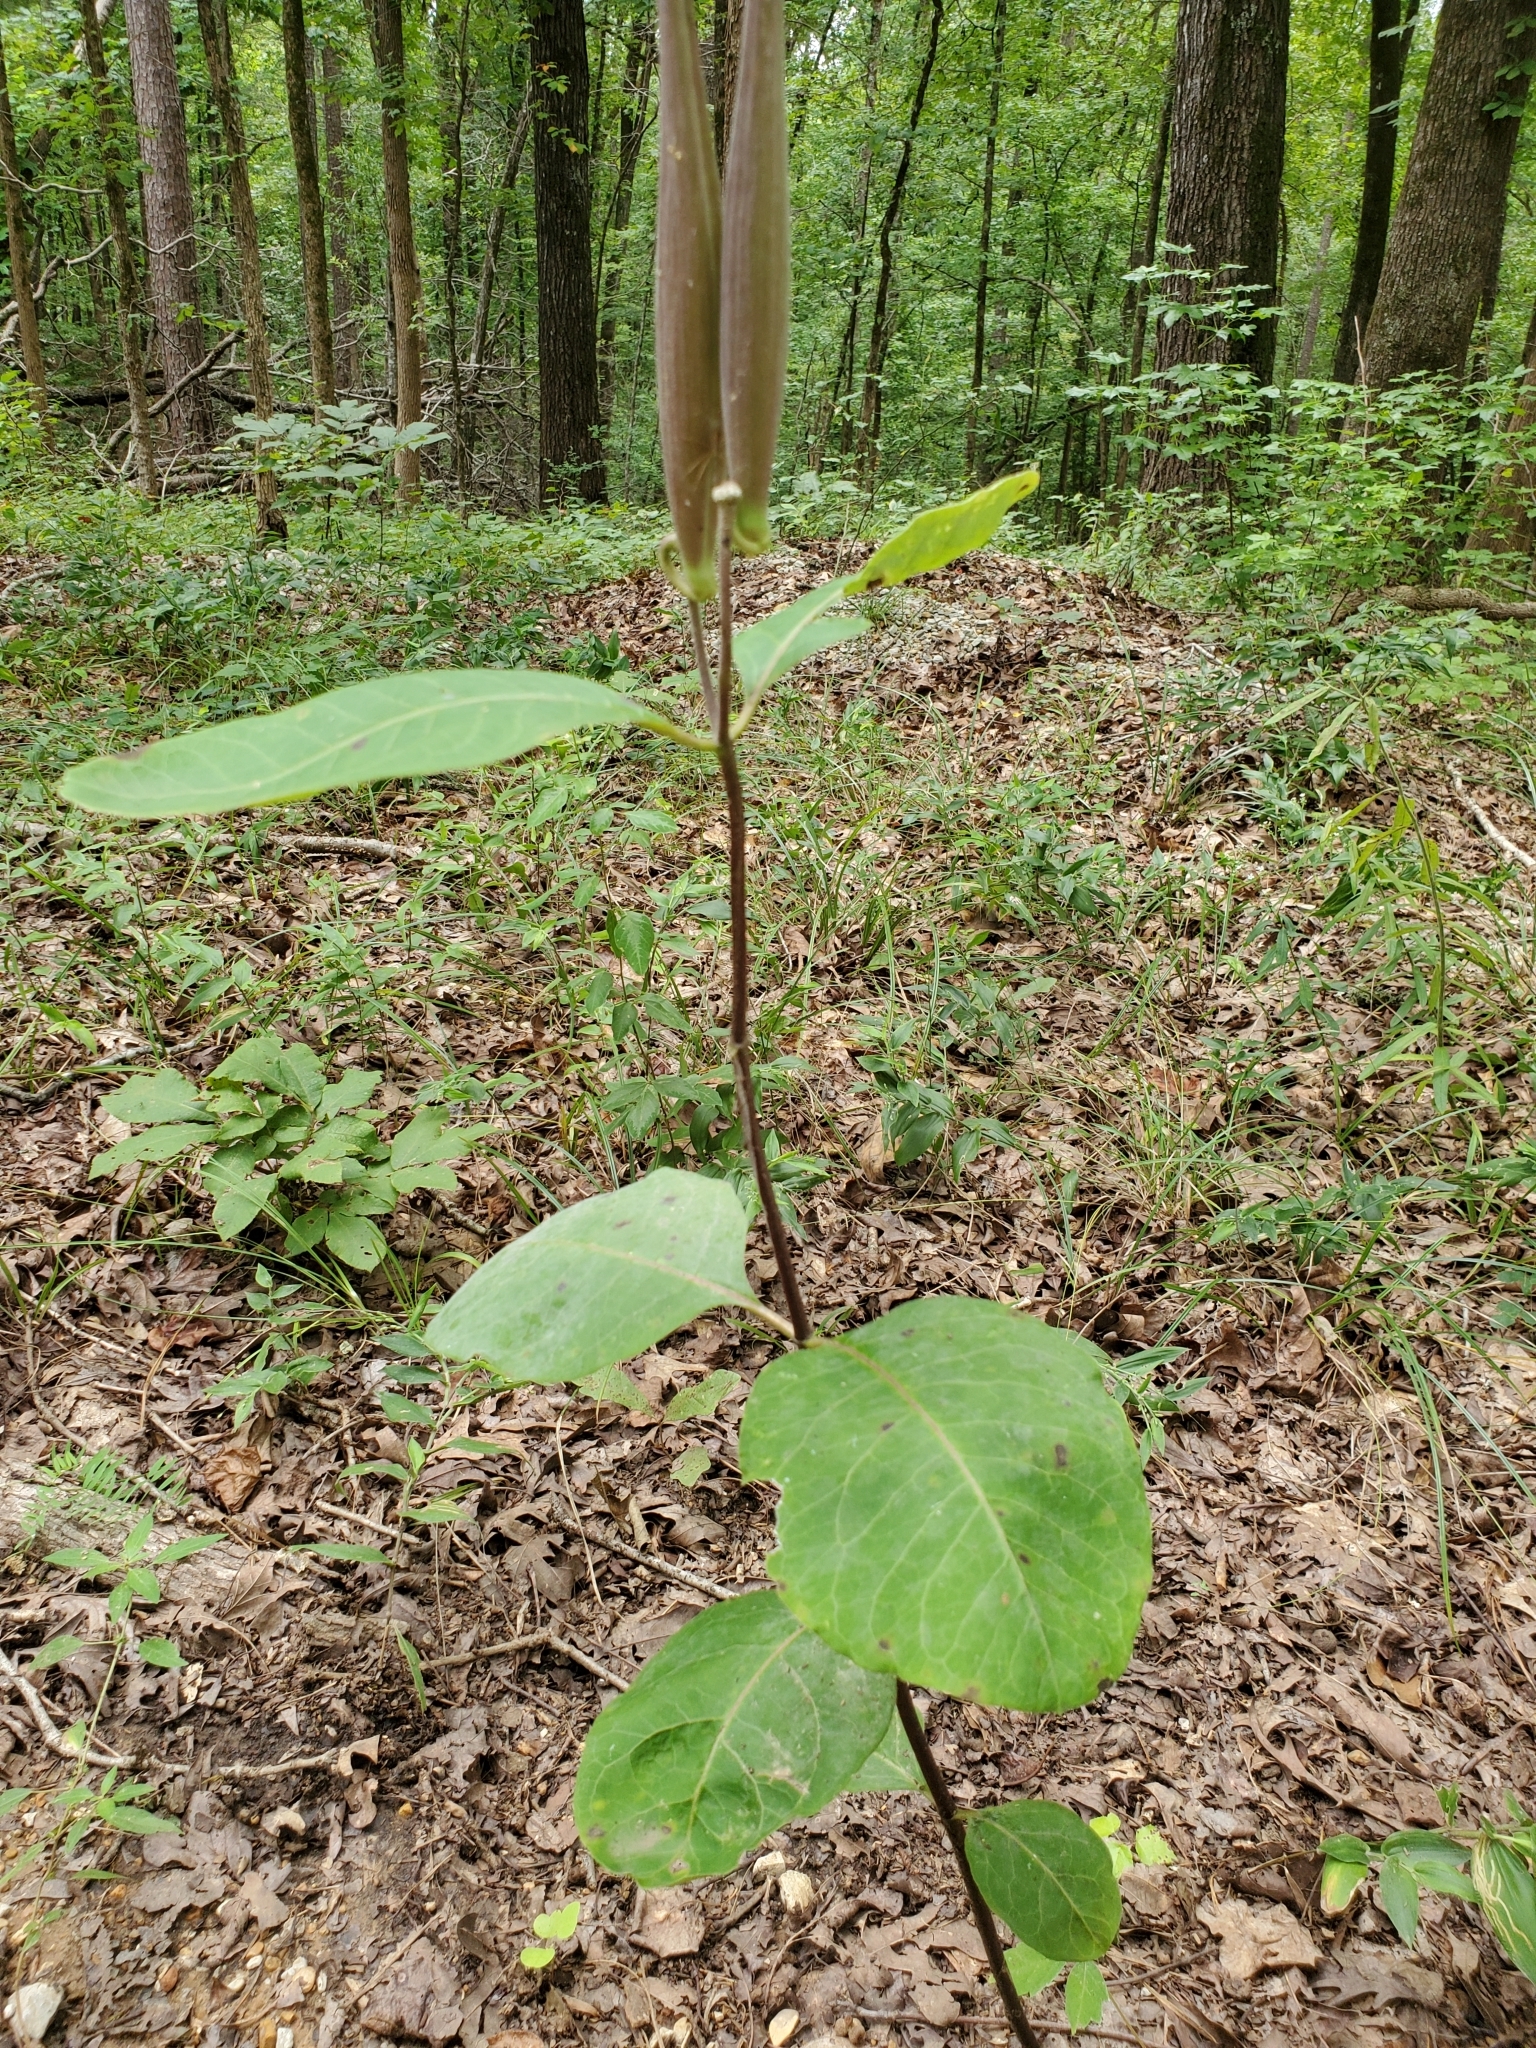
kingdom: Plantae
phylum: Tracheophyta
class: Magnoliopsida
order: Gentianales
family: Apocynaceae
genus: Asclepias
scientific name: Asclepias variegata
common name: Variegated milkweed
